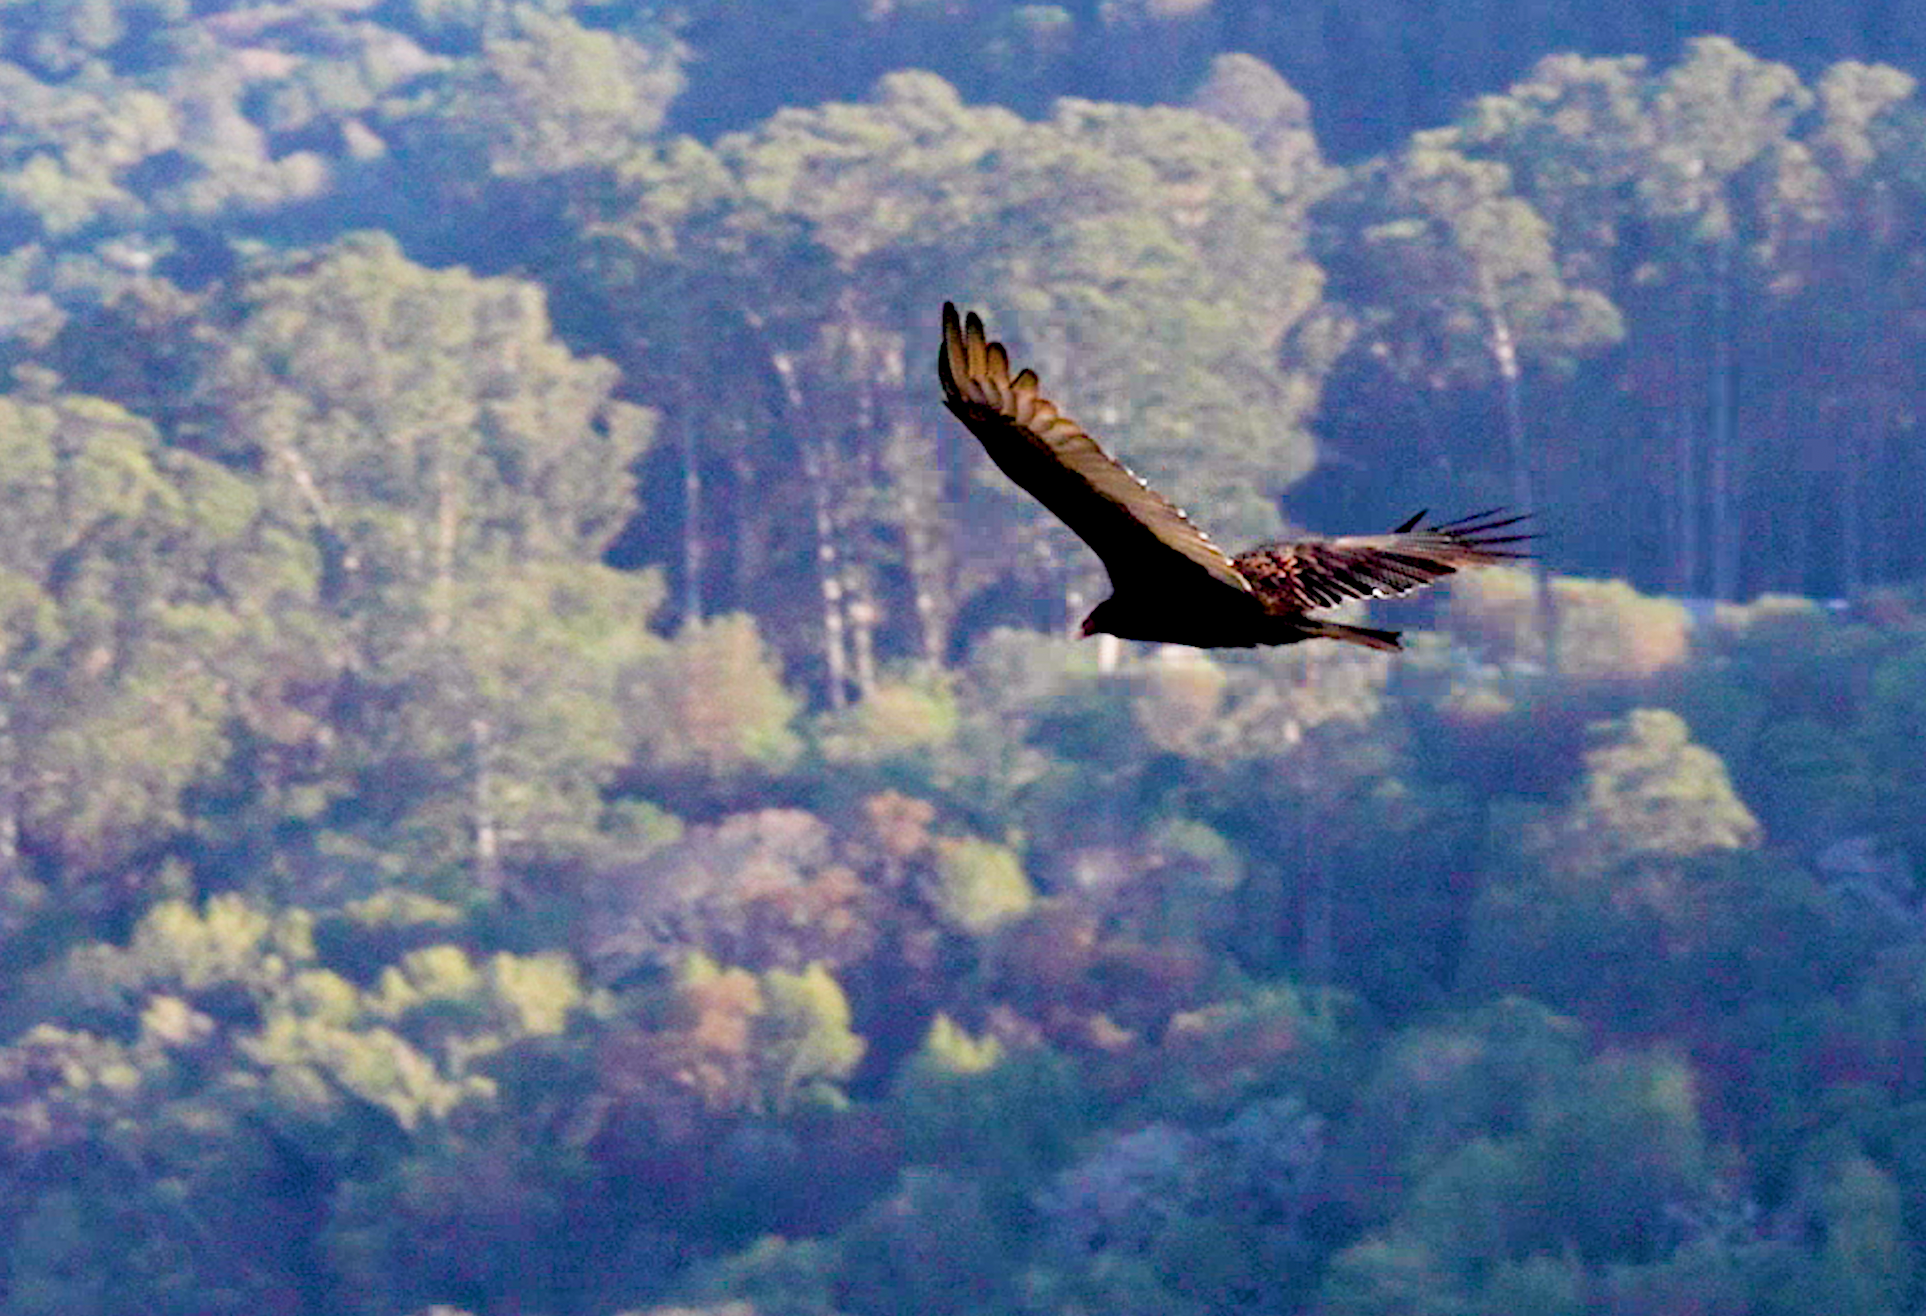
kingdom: Animalia
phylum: Chordata
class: Aves
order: Accipitriformes
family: Cathartidae
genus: Cathartes
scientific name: Cathartes aura
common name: Turkey vulture
